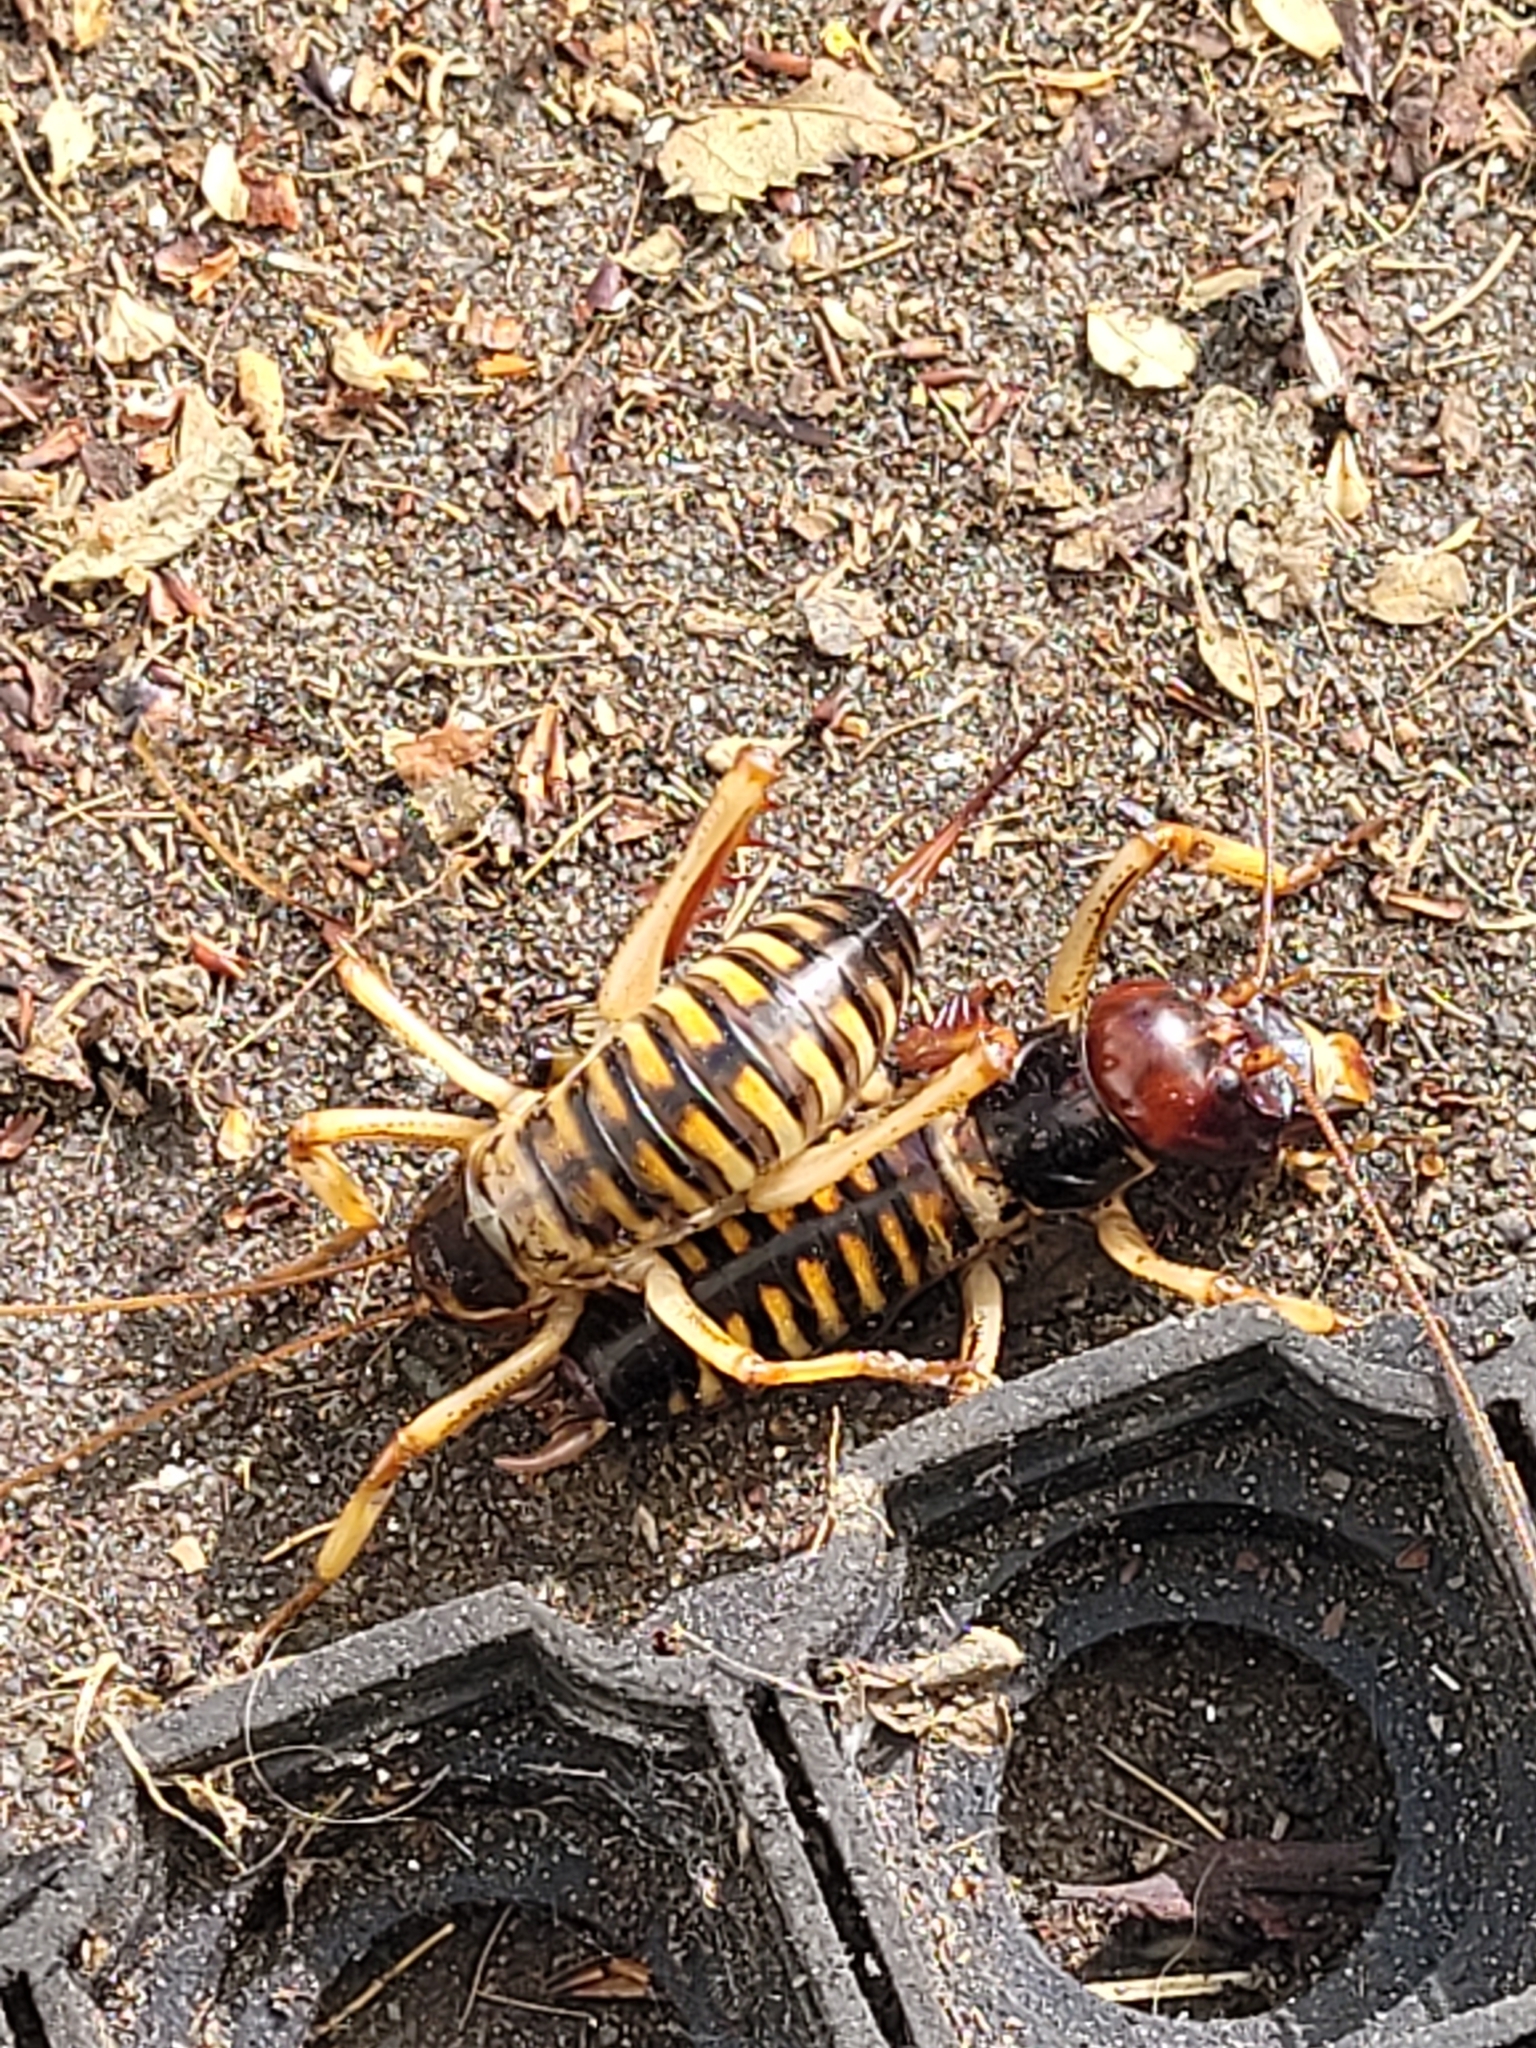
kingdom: Animalia
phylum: Arthropoda
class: Insecta
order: Orthoptera
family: Anostostomatidae
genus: Hemideina
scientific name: Hemideina crassidens
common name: Wellington tree weta
